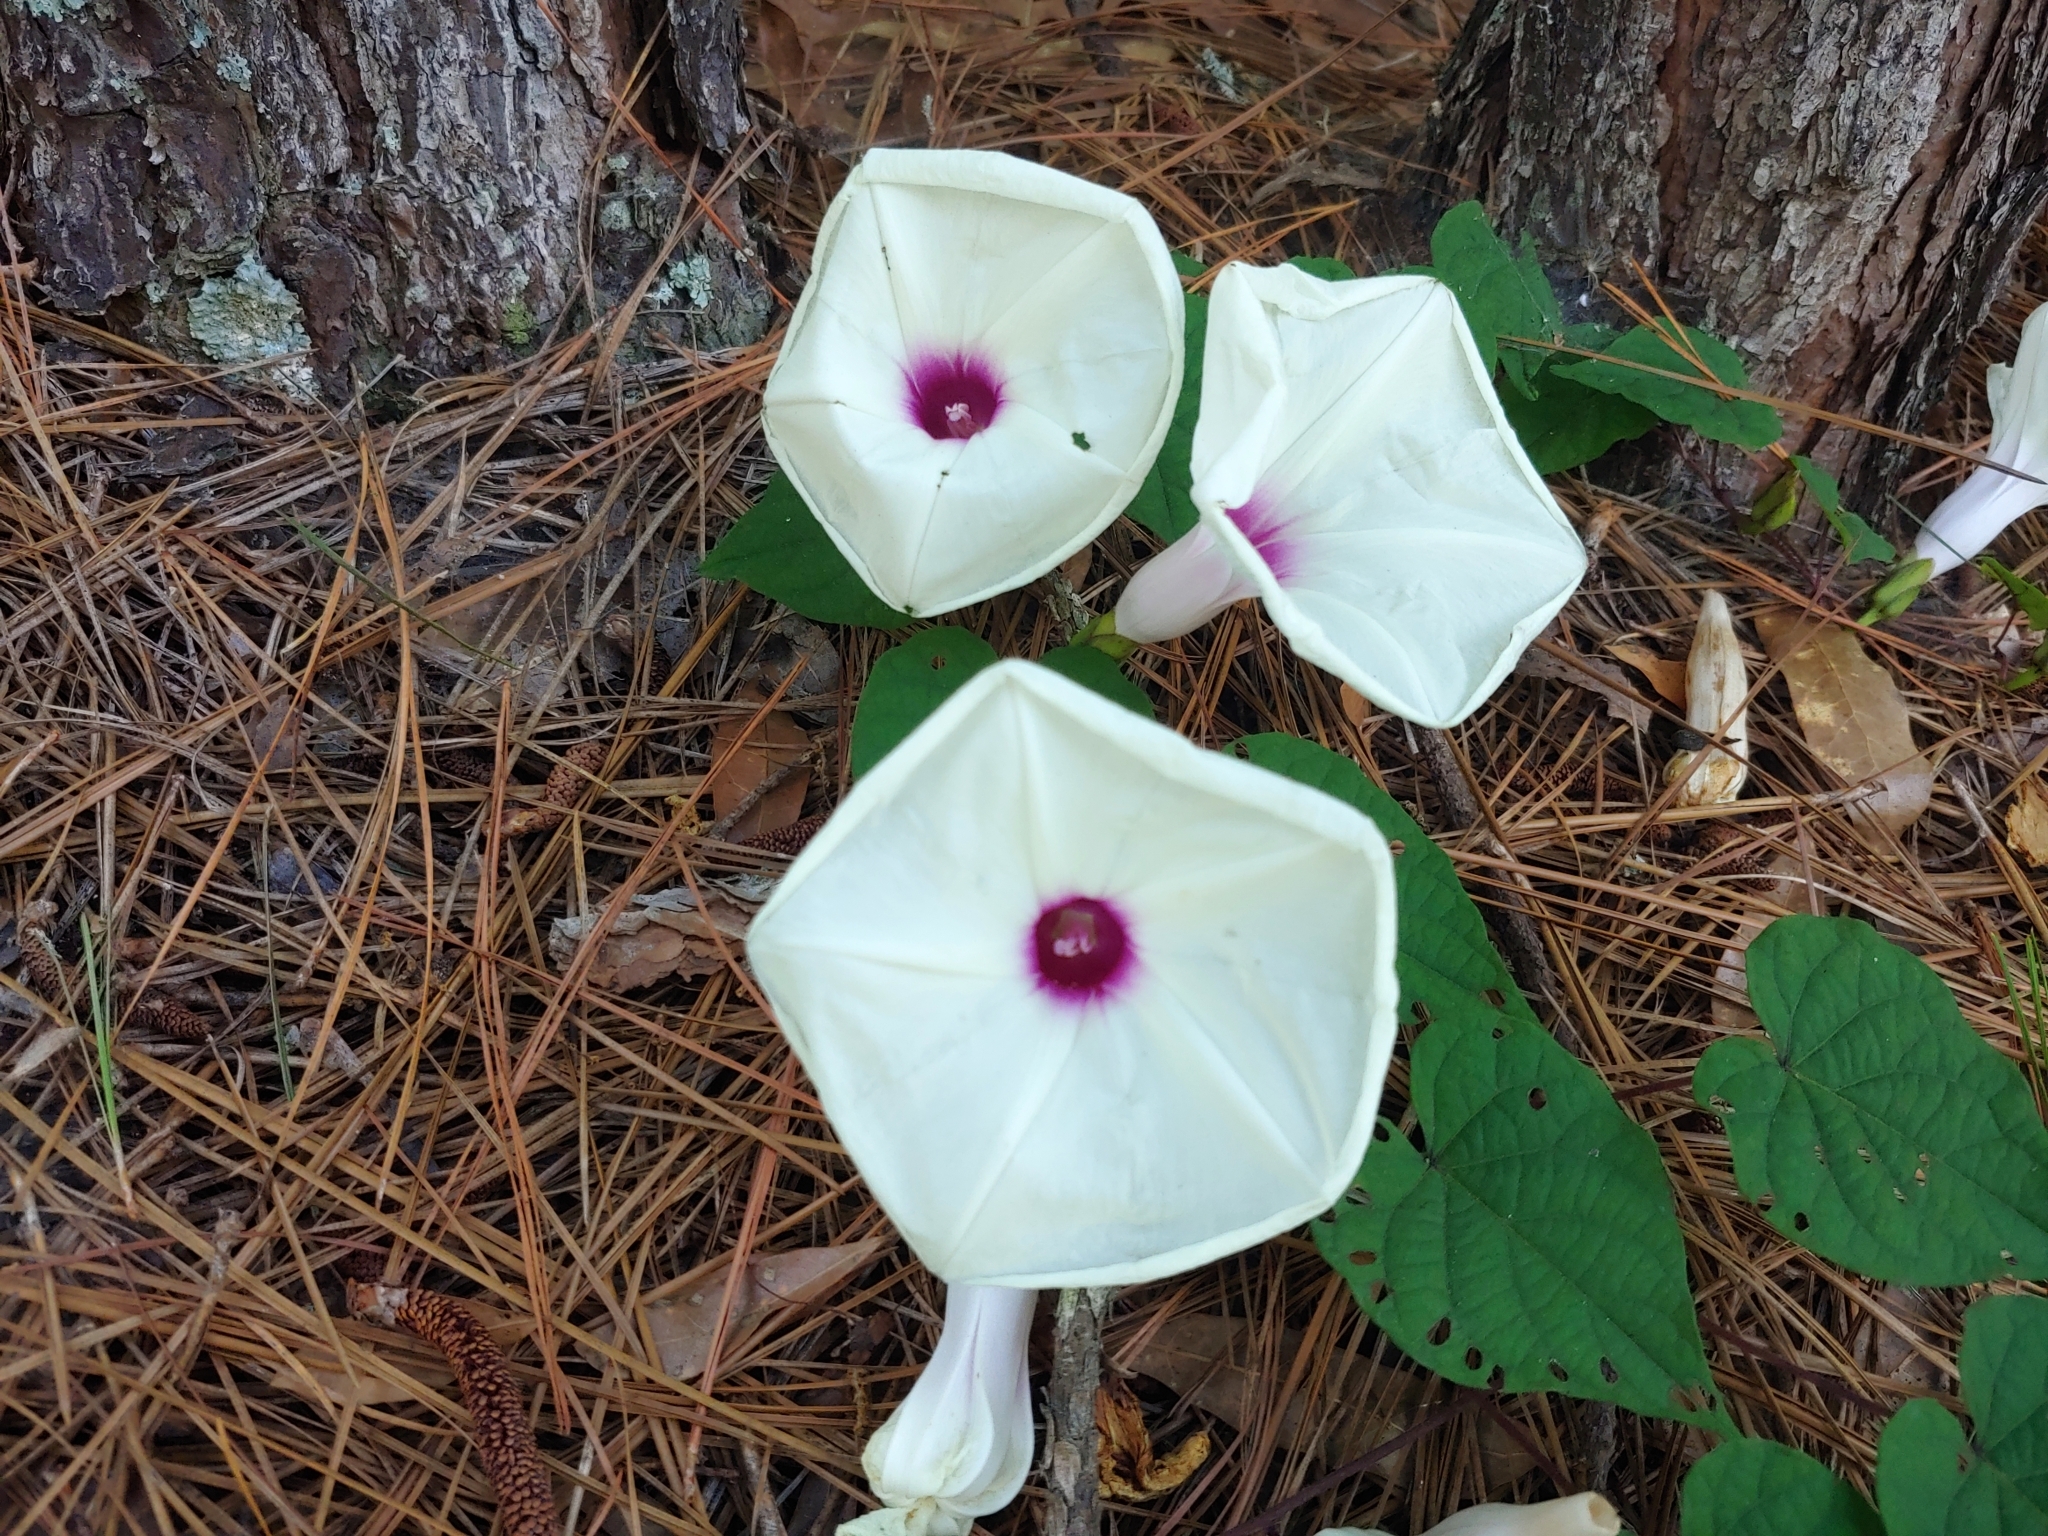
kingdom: Plantae
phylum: Tracheophyta
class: Magnoliopsida
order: Solanales
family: Convolvulaceae
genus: Ipomoea
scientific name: Ipomoea pandurata
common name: Man-of-the-earth
